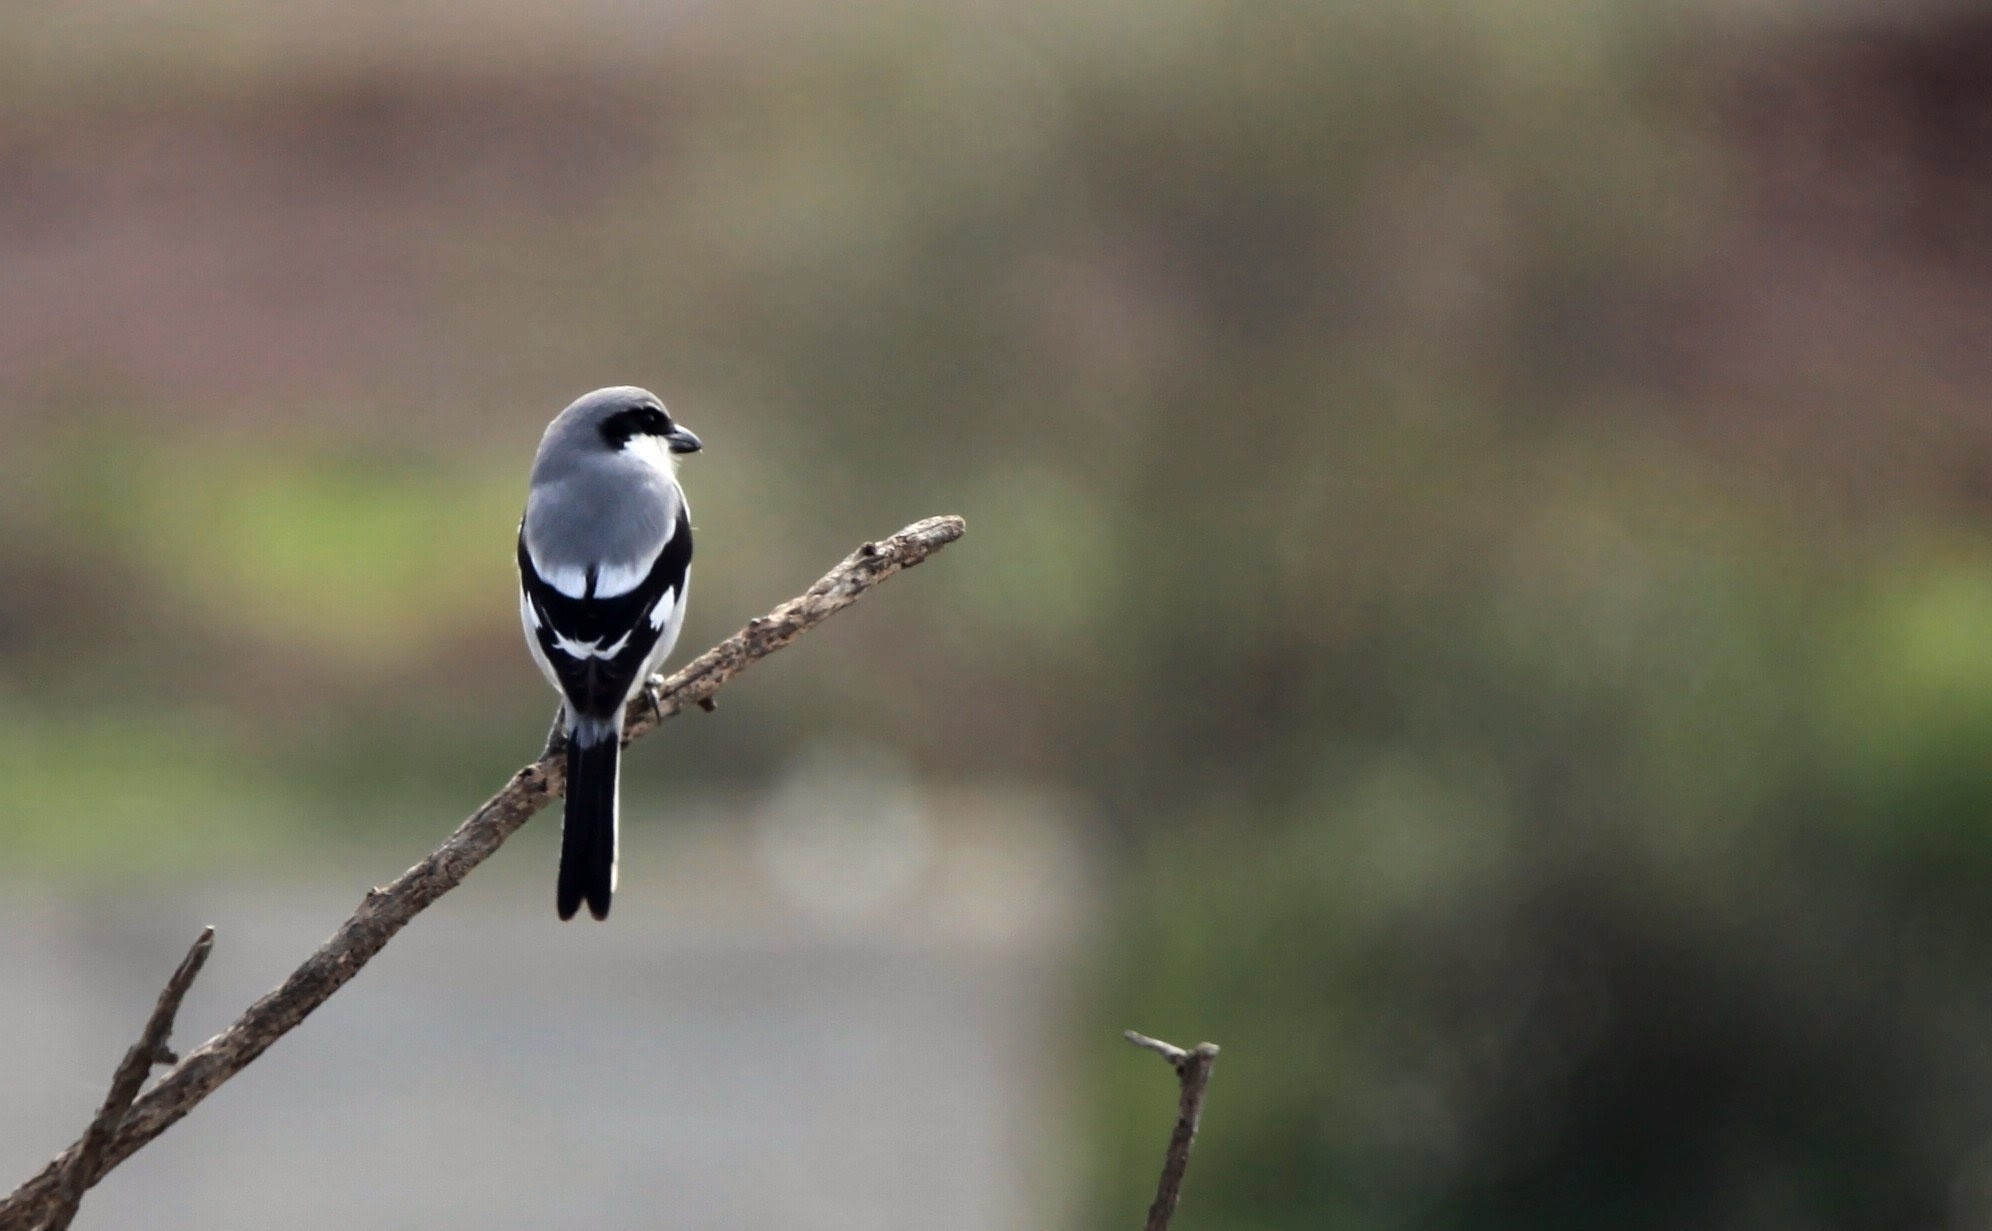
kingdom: Animalia
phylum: Chordata
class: Aves
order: Passeriformes
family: Laniidae
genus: Lanius
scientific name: Lanius excubitor
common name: Great grey shrike
